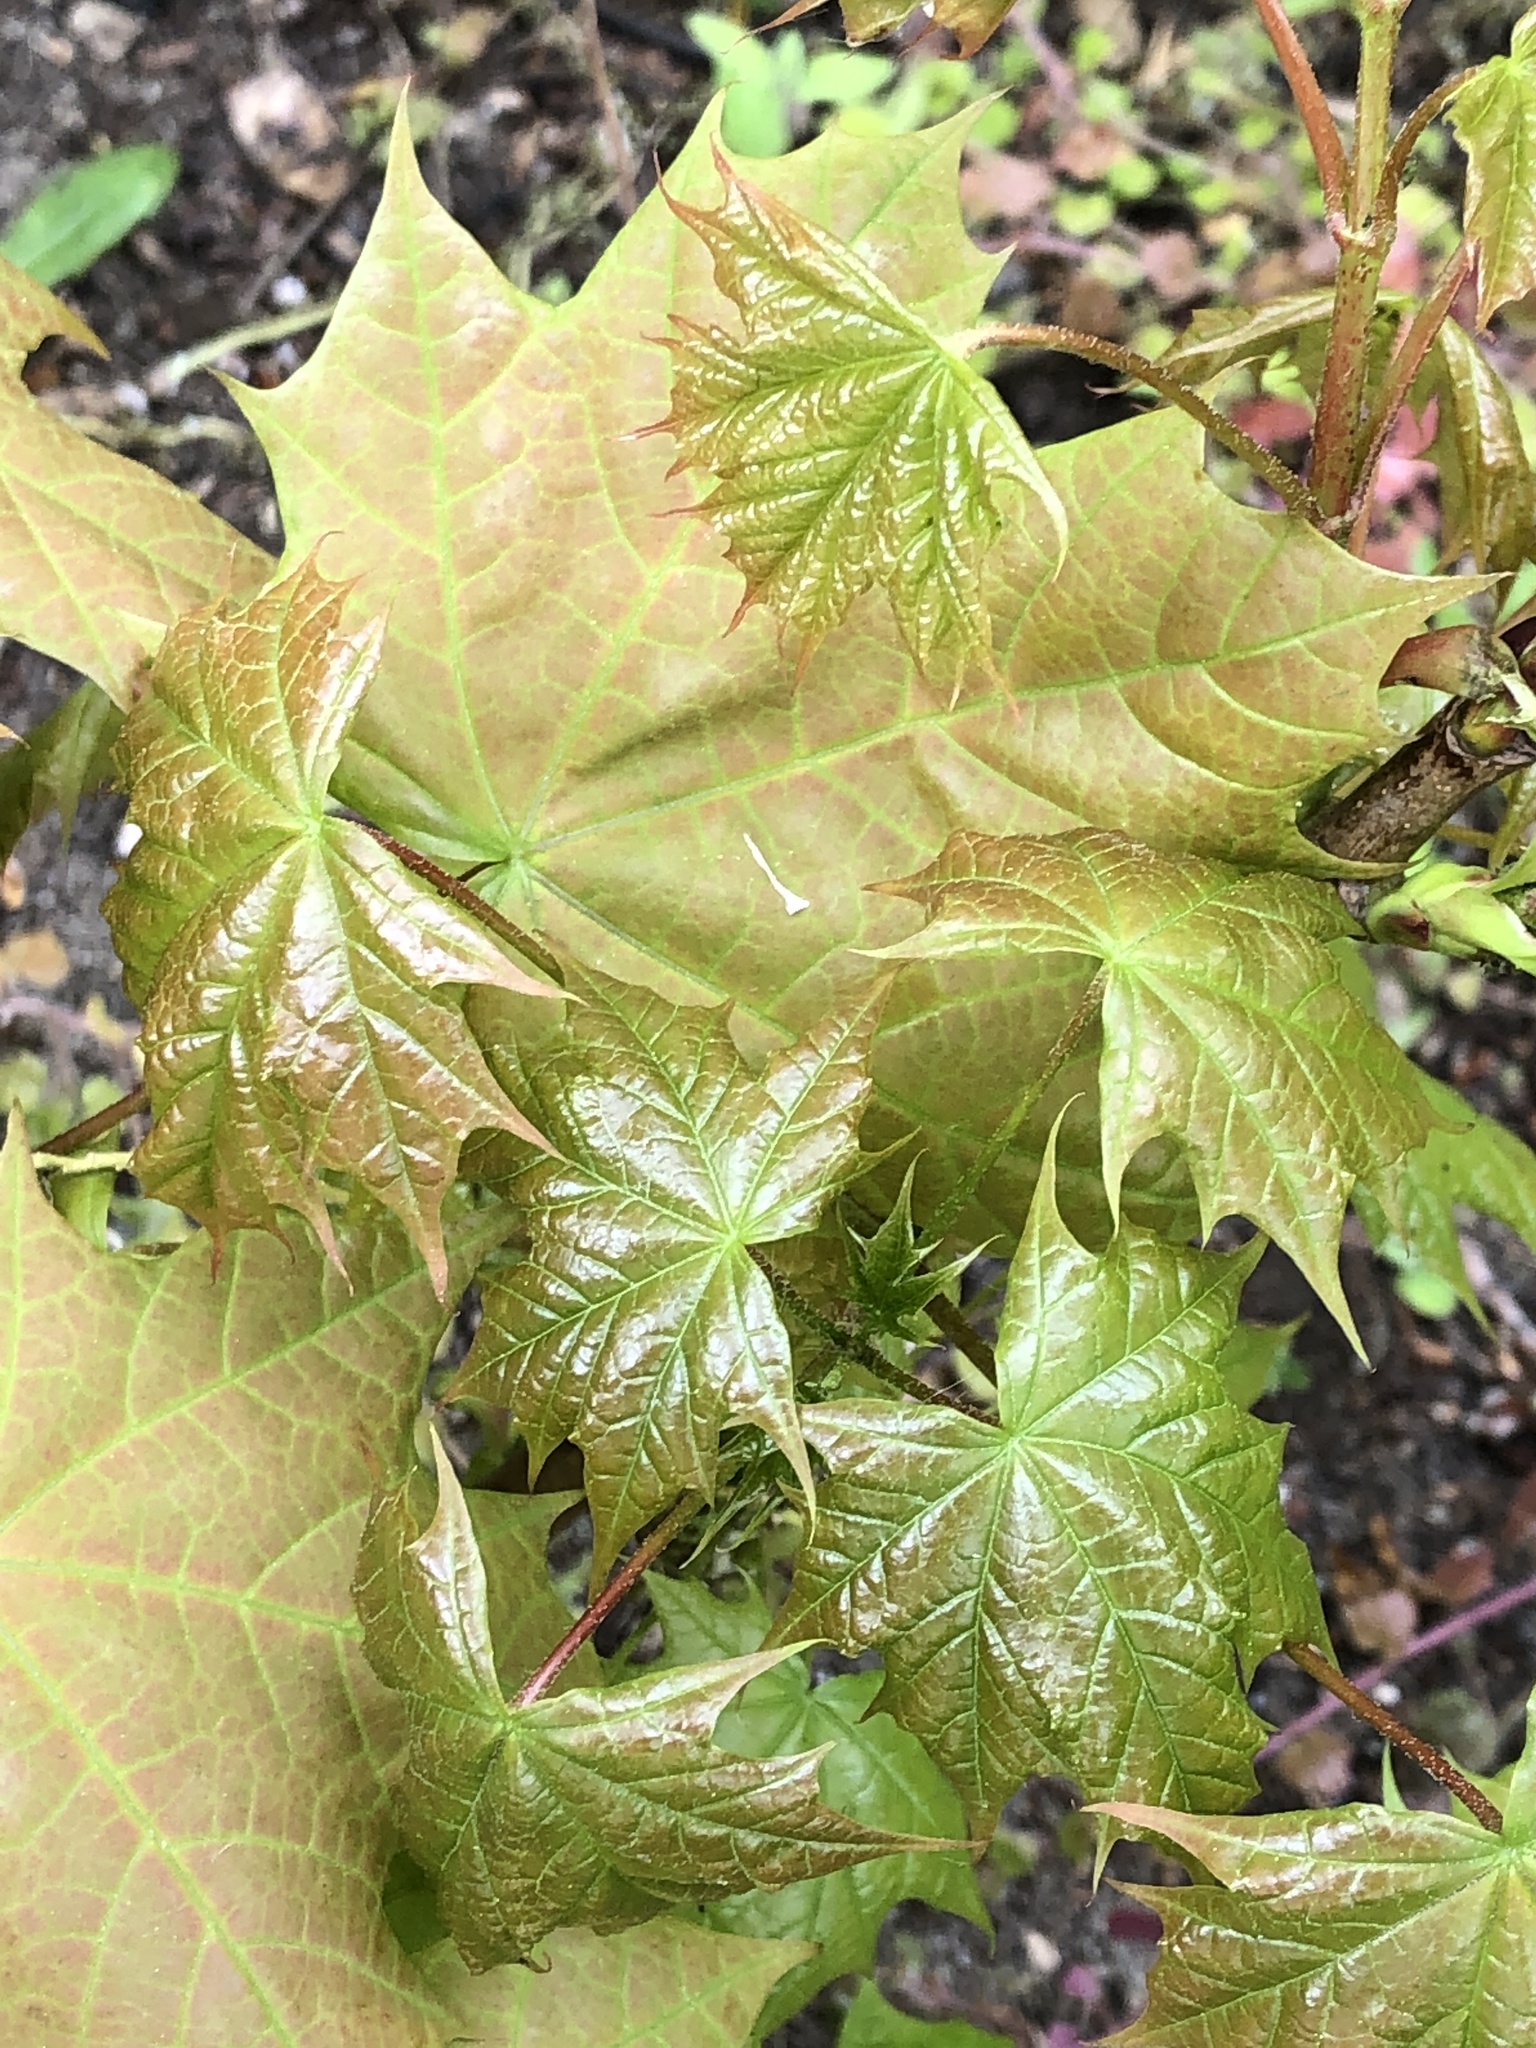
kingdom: Plantae
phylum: Tracheophyta
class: Magnoliopsida
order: Sapindales
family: Sapindaceae
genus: Acer
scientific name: Acer platanoides
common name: Norway maple
